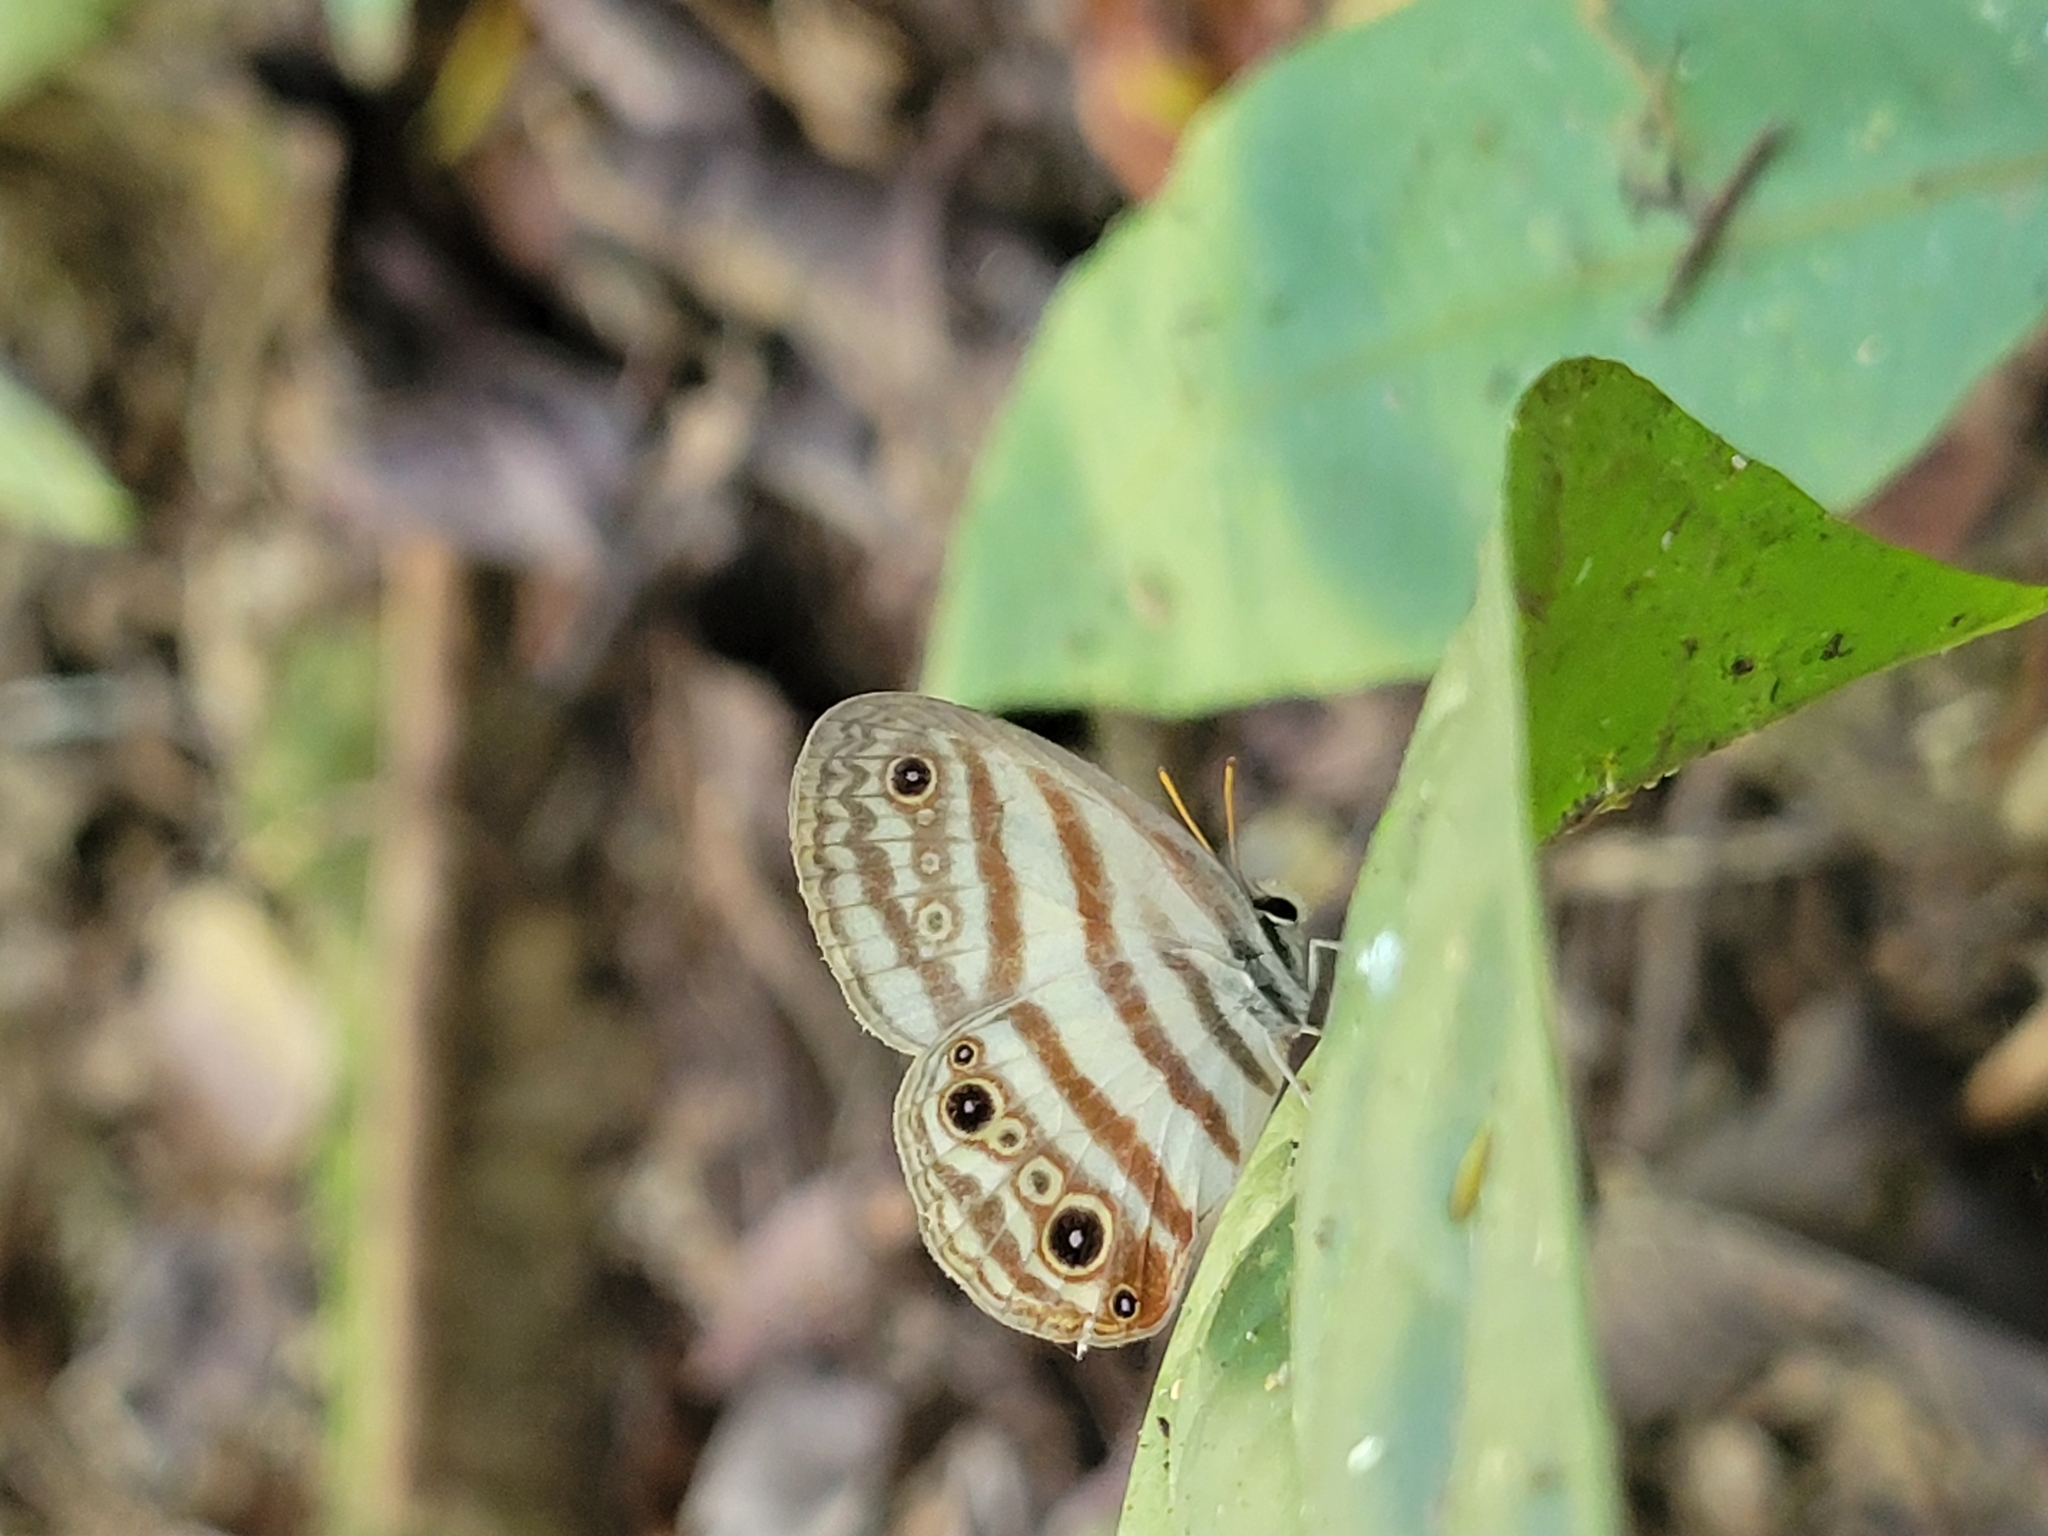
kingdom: Animalia
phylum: Arthropoda
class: Insecta
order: Lepidoptera
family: Nymphalidae
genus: Euptychia
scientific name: Euptychia enyo
